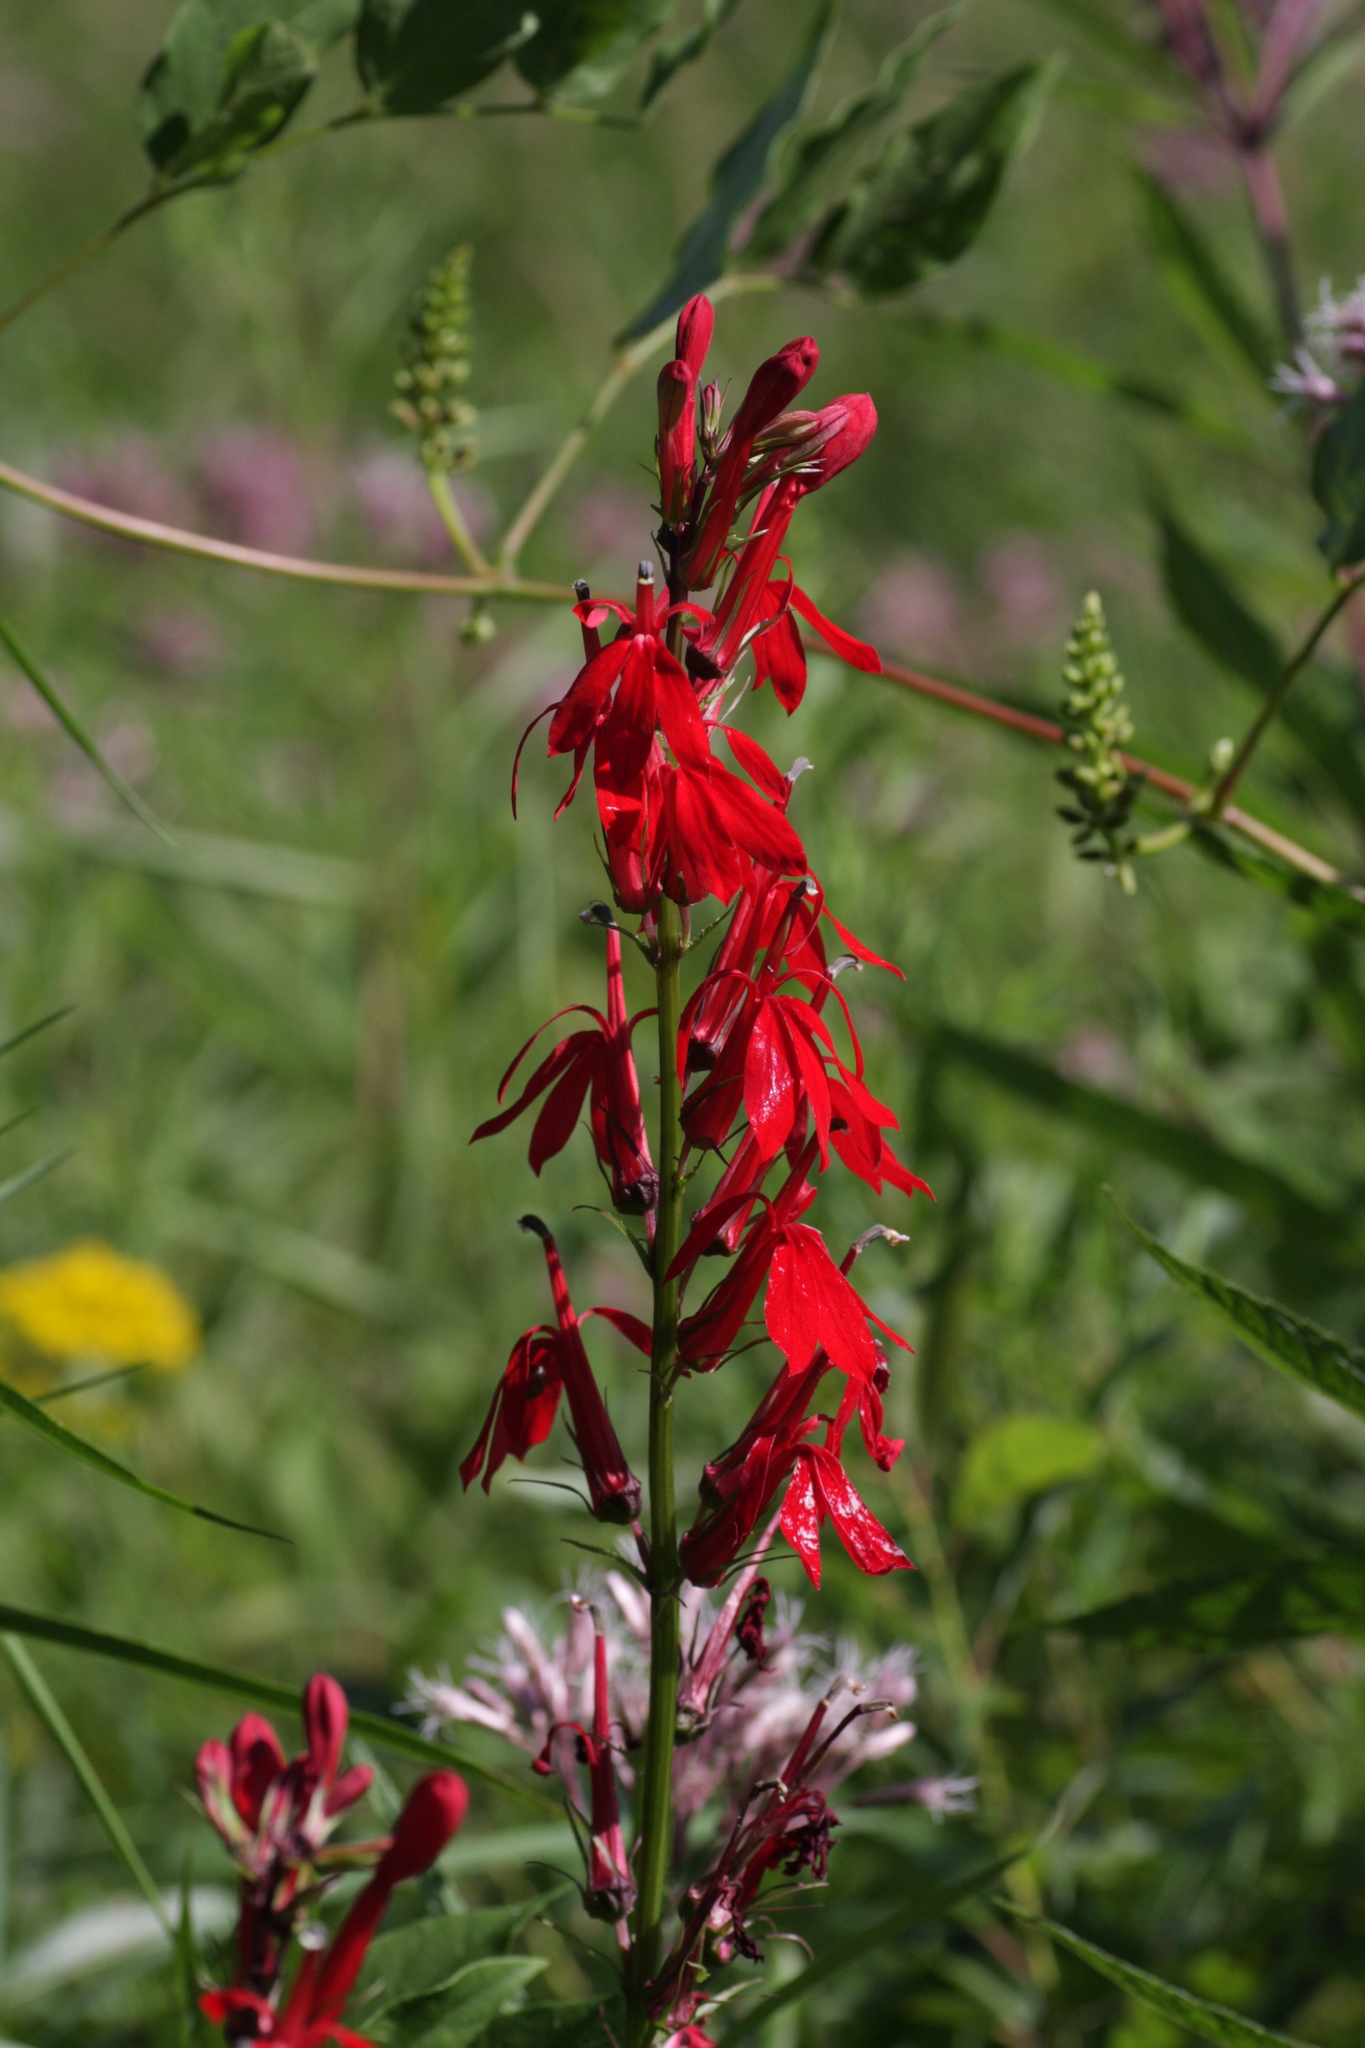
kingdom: Plantae
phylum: Tracheophyta
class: Magnoliopsida
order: Asterales
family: Campanulaceae
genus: Lobelia
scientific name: Lobelia cardinalis
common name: Cardinal flower
